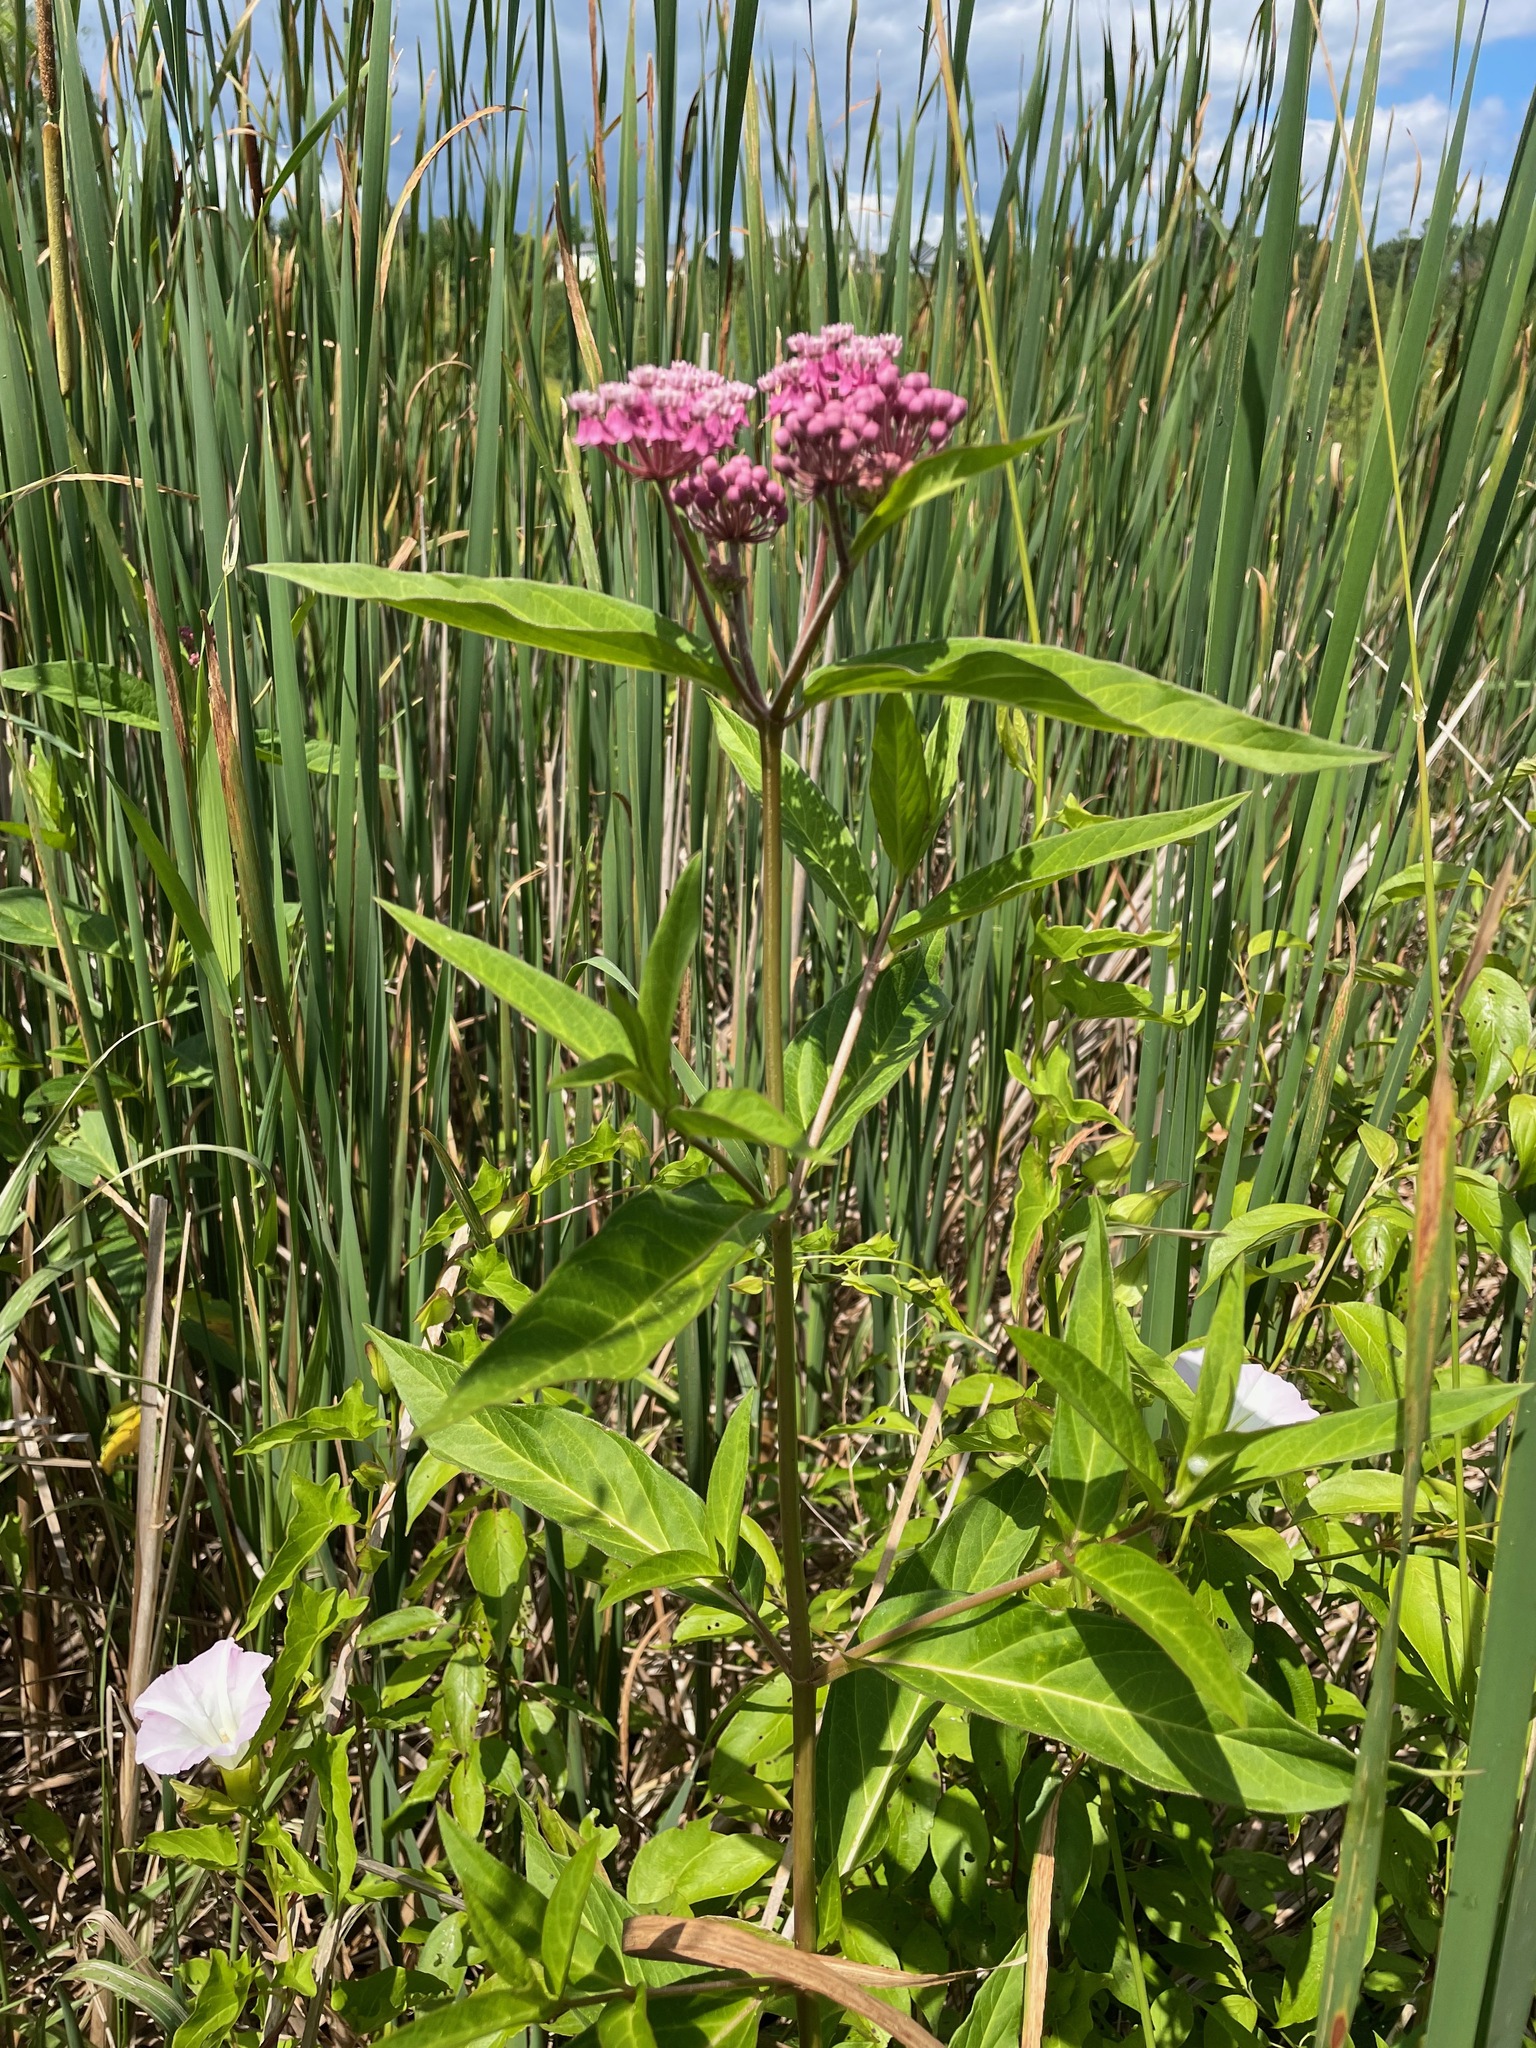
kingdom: Plantae
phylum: Tracheophyta
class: Magnoliopsida
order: Gentianales
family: Apocynaceae
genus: Asclepias
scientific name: Asclepias incarnata
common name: Swamp milkweed
